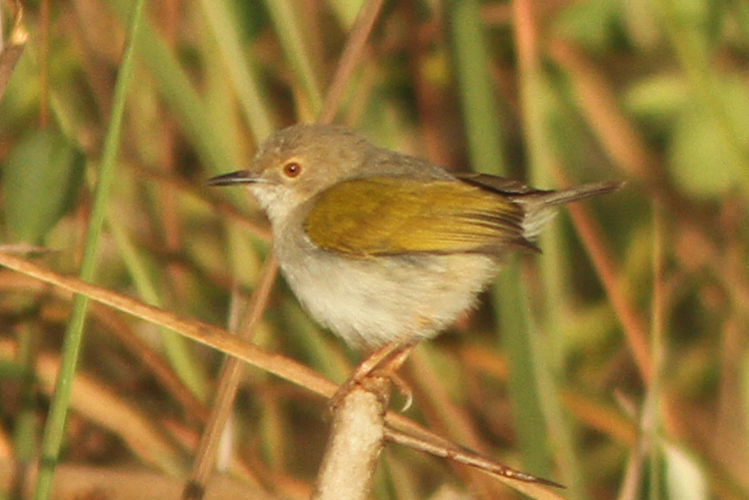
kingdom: Animalia
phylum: Chordata
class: Aves
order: Passeriformes
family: Cisticolidae
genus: Camaroptera
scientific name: Camaroptera brachyura
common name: Green-backed camaroptera
